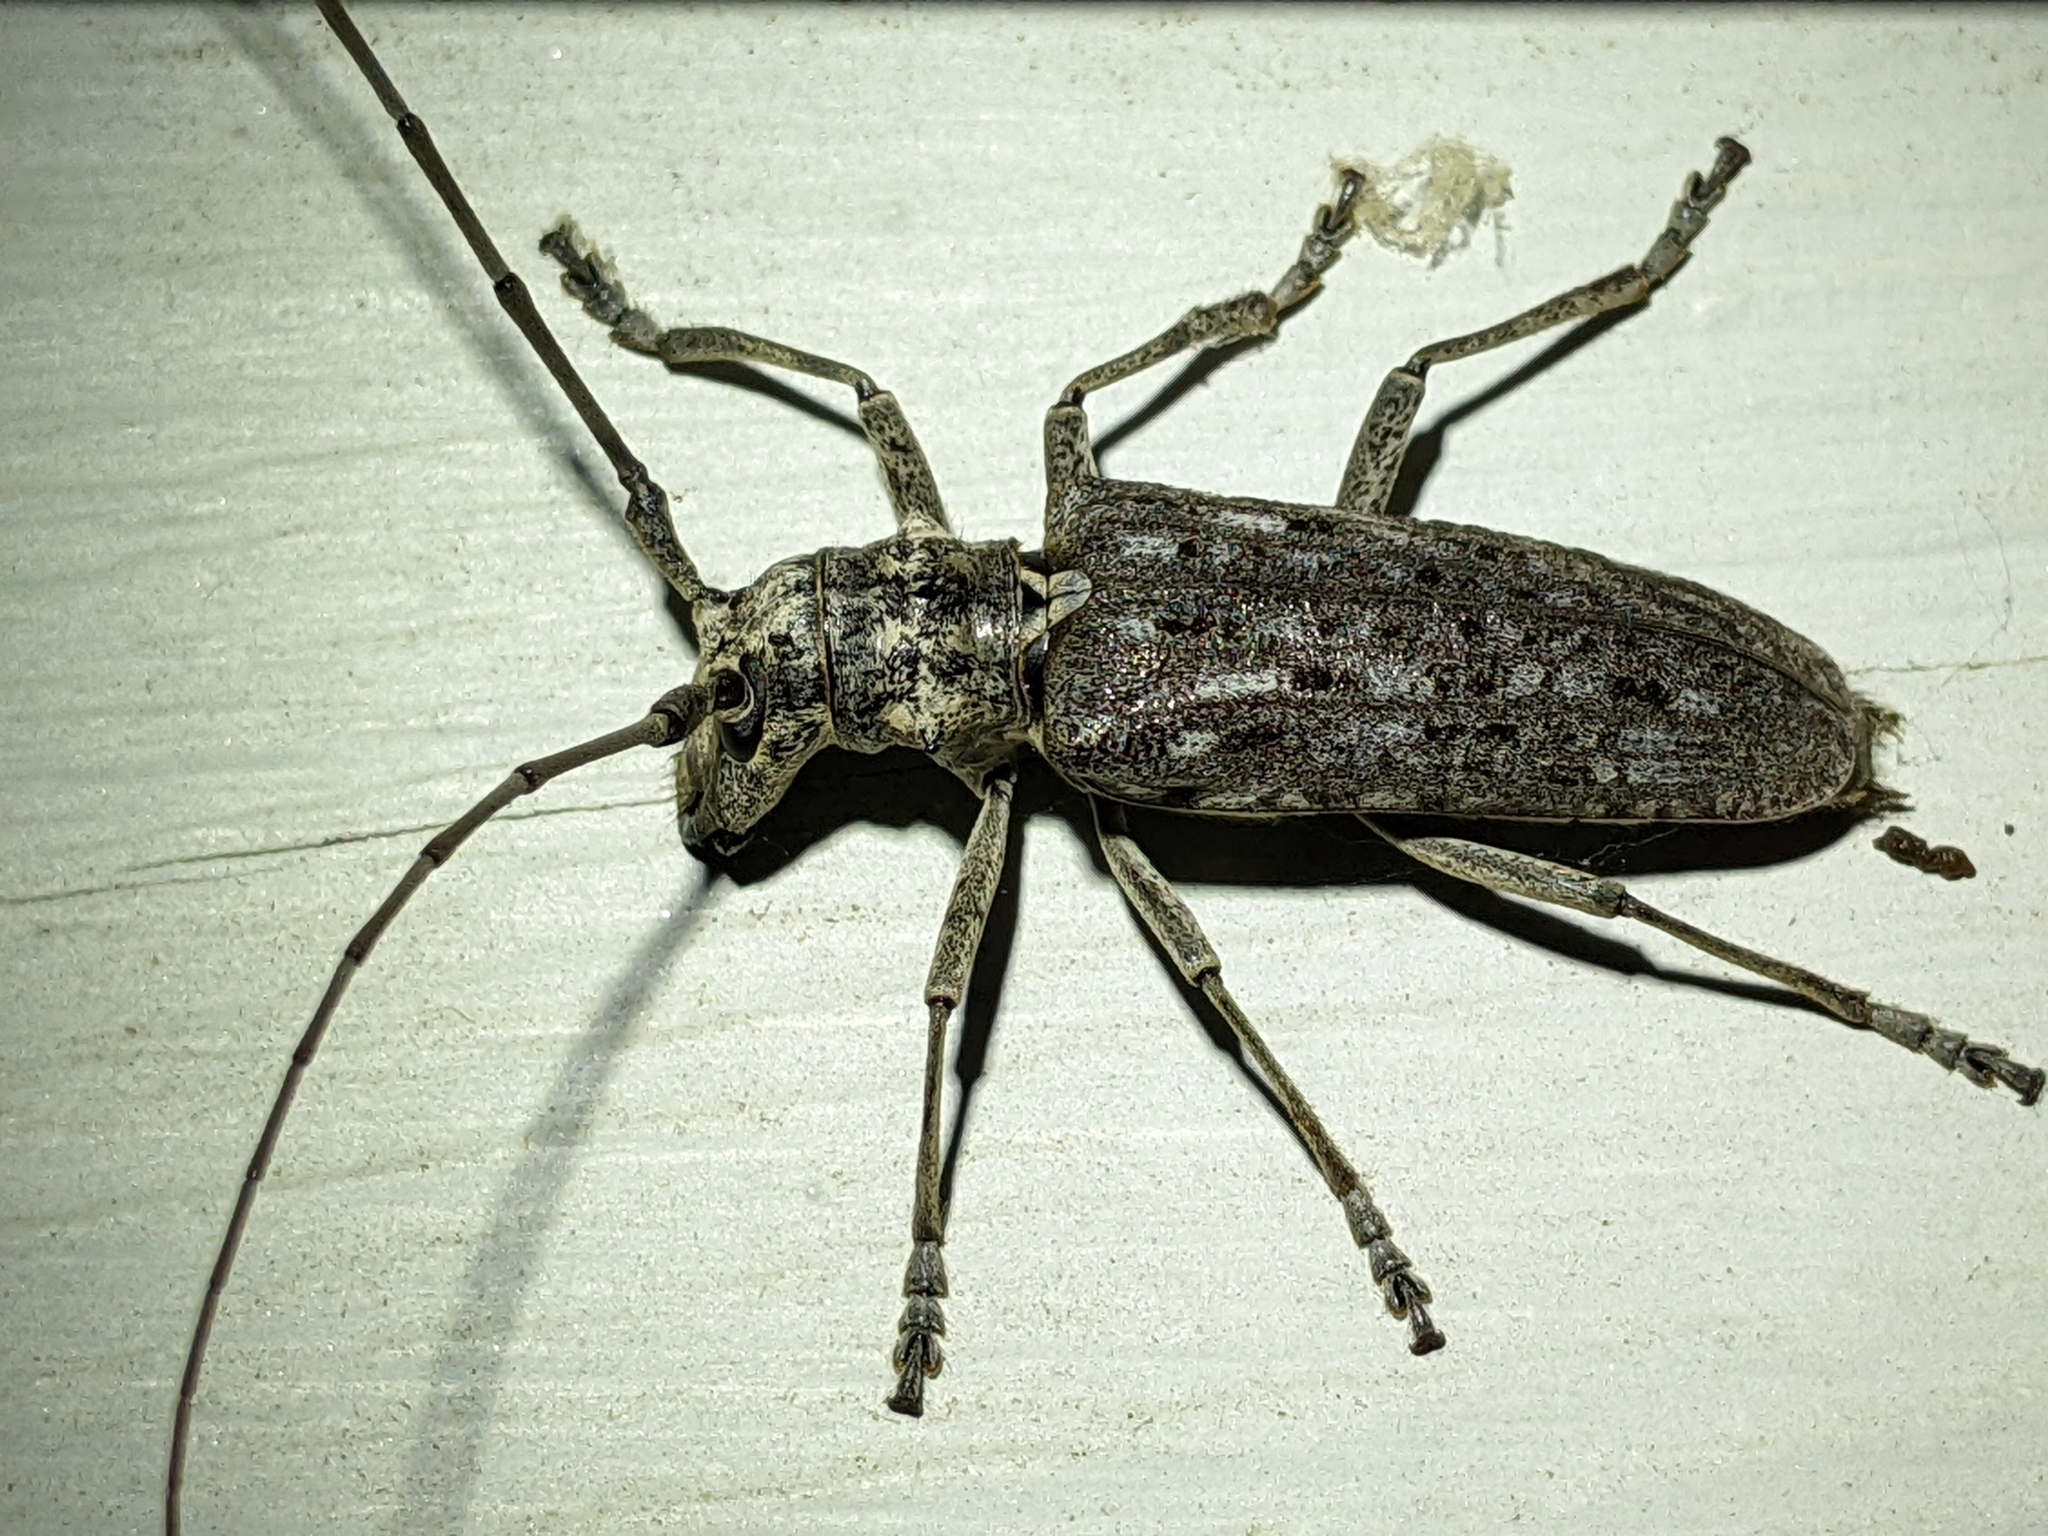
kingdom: Animalia
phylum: Arthropoda
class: Insecta
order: Coleoptera
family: Cerambycidae
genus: Monochamus
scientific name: Monochamus notatus
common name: Northeastern pine sawyer beetle
